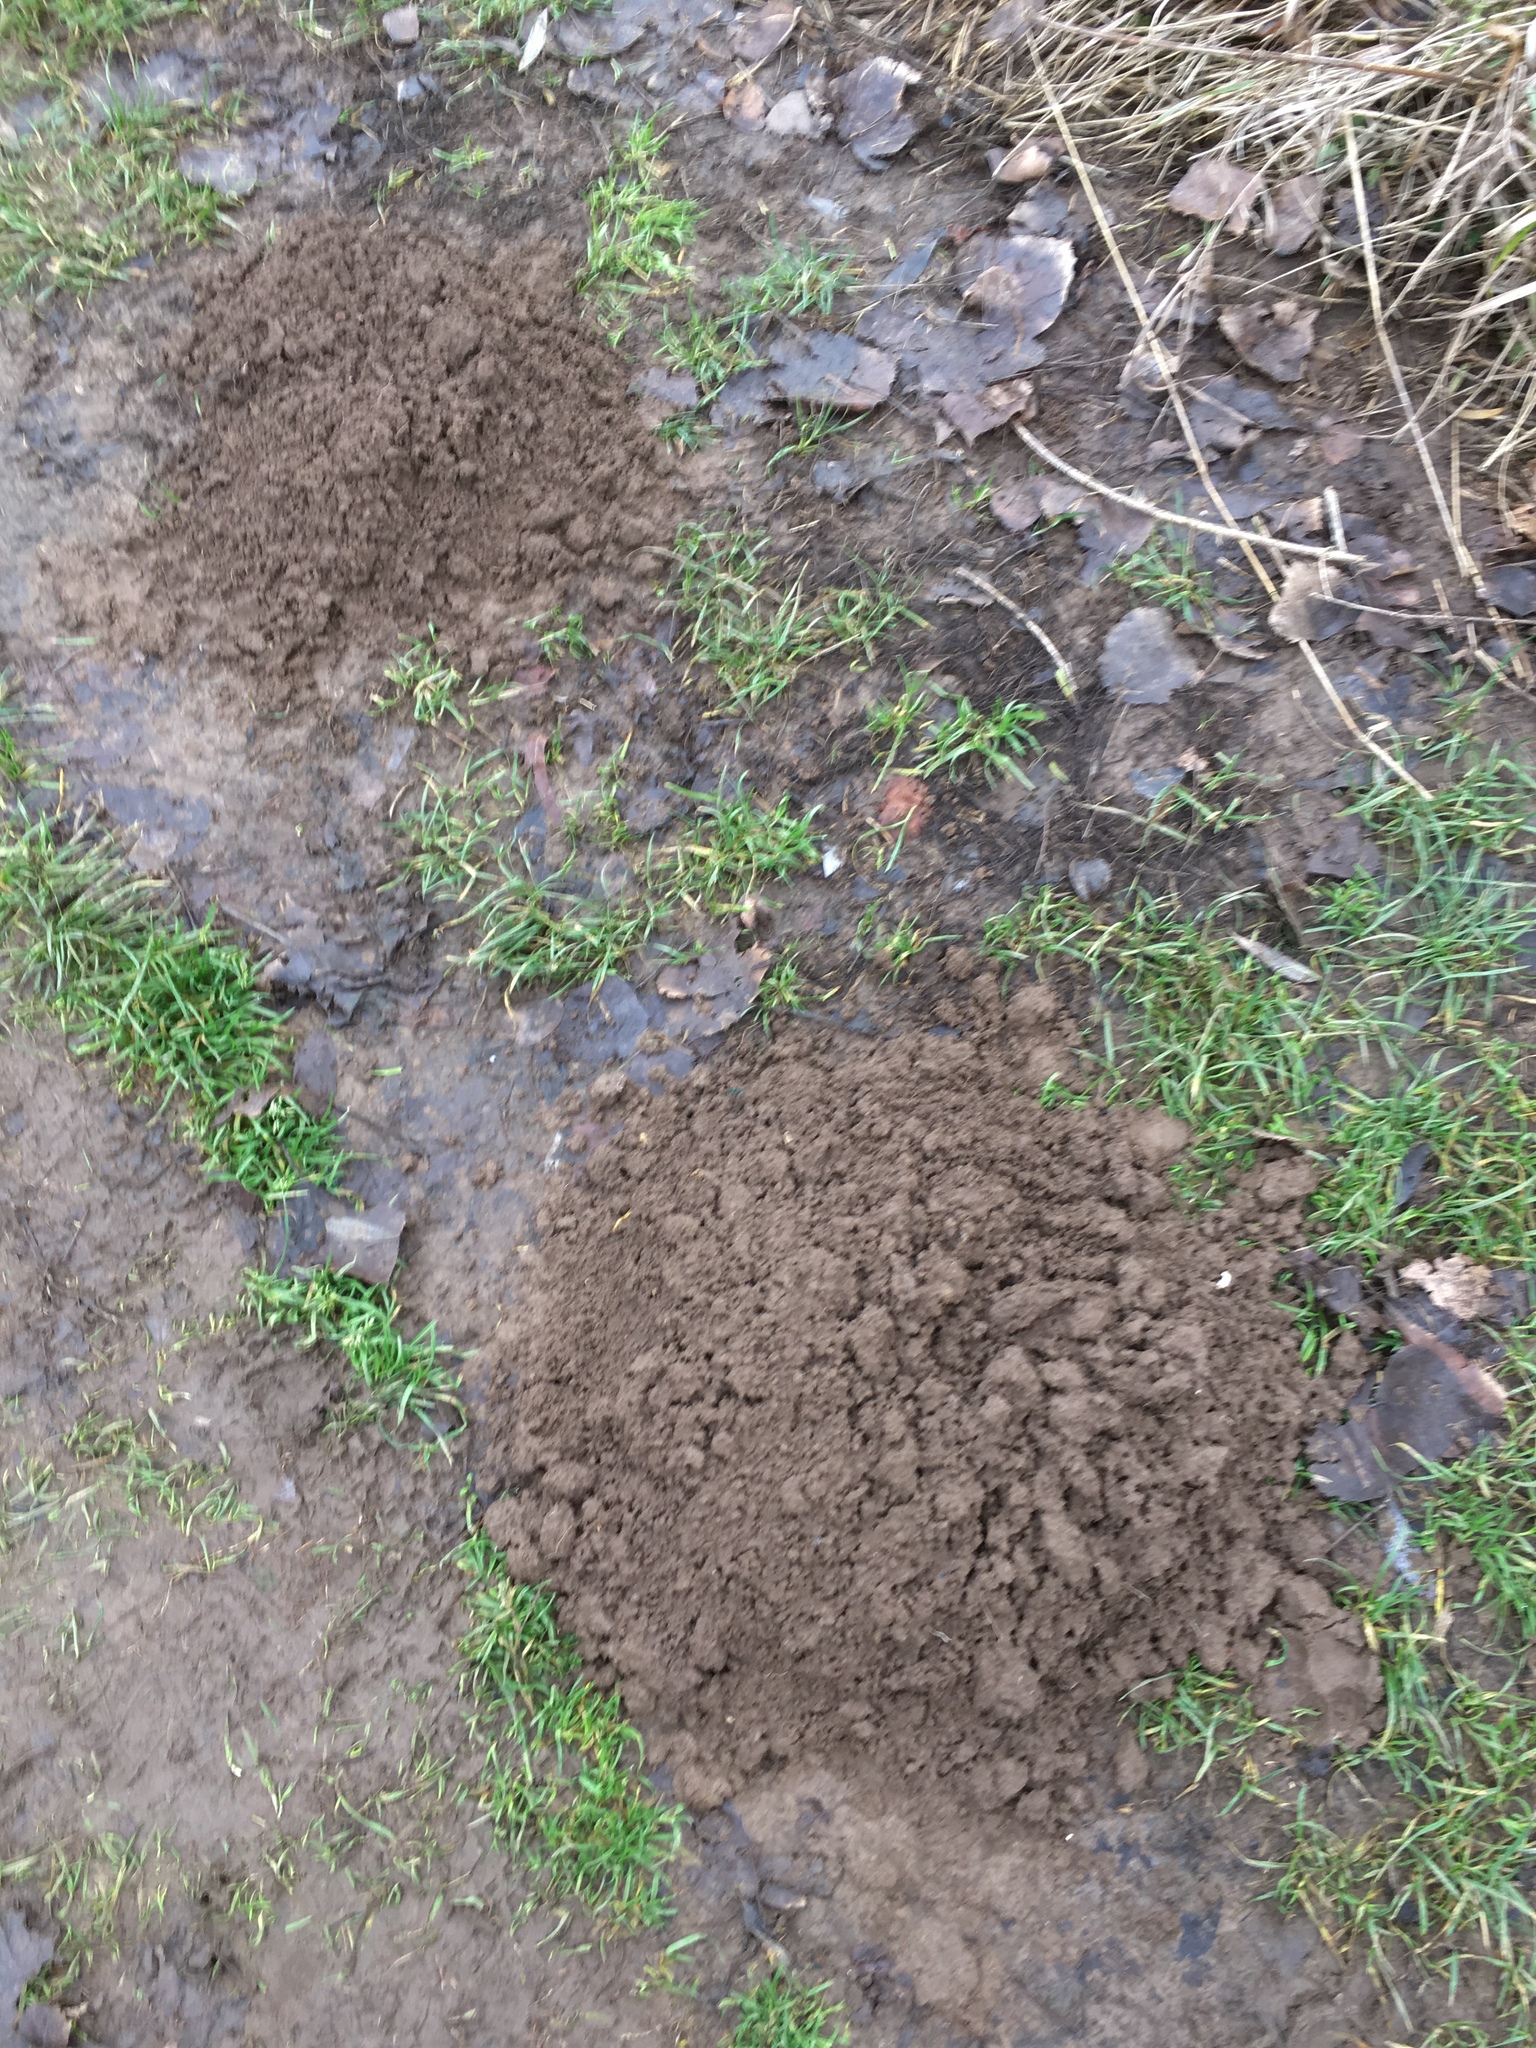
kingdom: Animalia
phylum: Chordata
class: Mammalia
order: Soricomorpha
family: Talpidae
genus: Talpa
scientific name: Talpa europaea
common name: European mole
